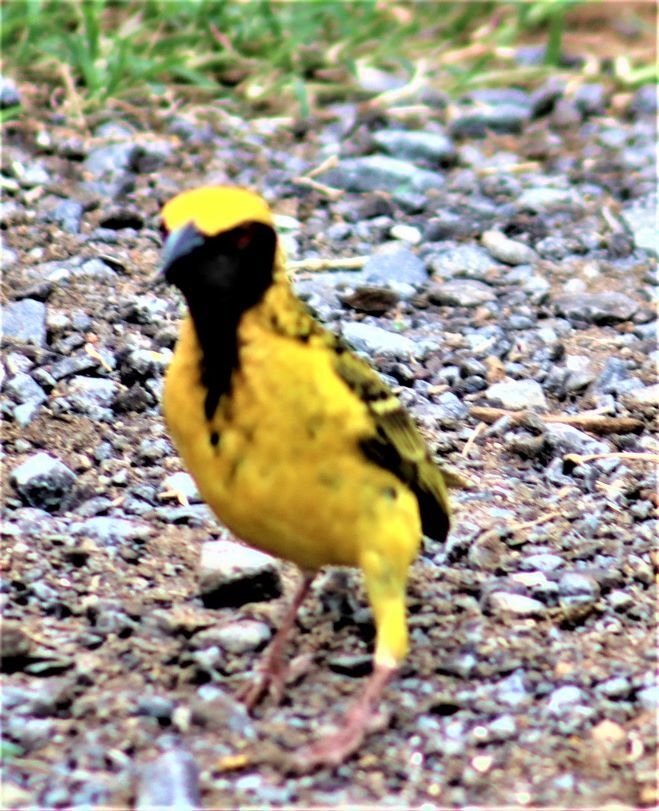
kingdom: Animalia
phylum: Chordata
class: Aves
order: Passeriformes
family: Ploceidae
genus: Ploceus
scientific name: Ploceus cucullatus
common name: Village weaver
